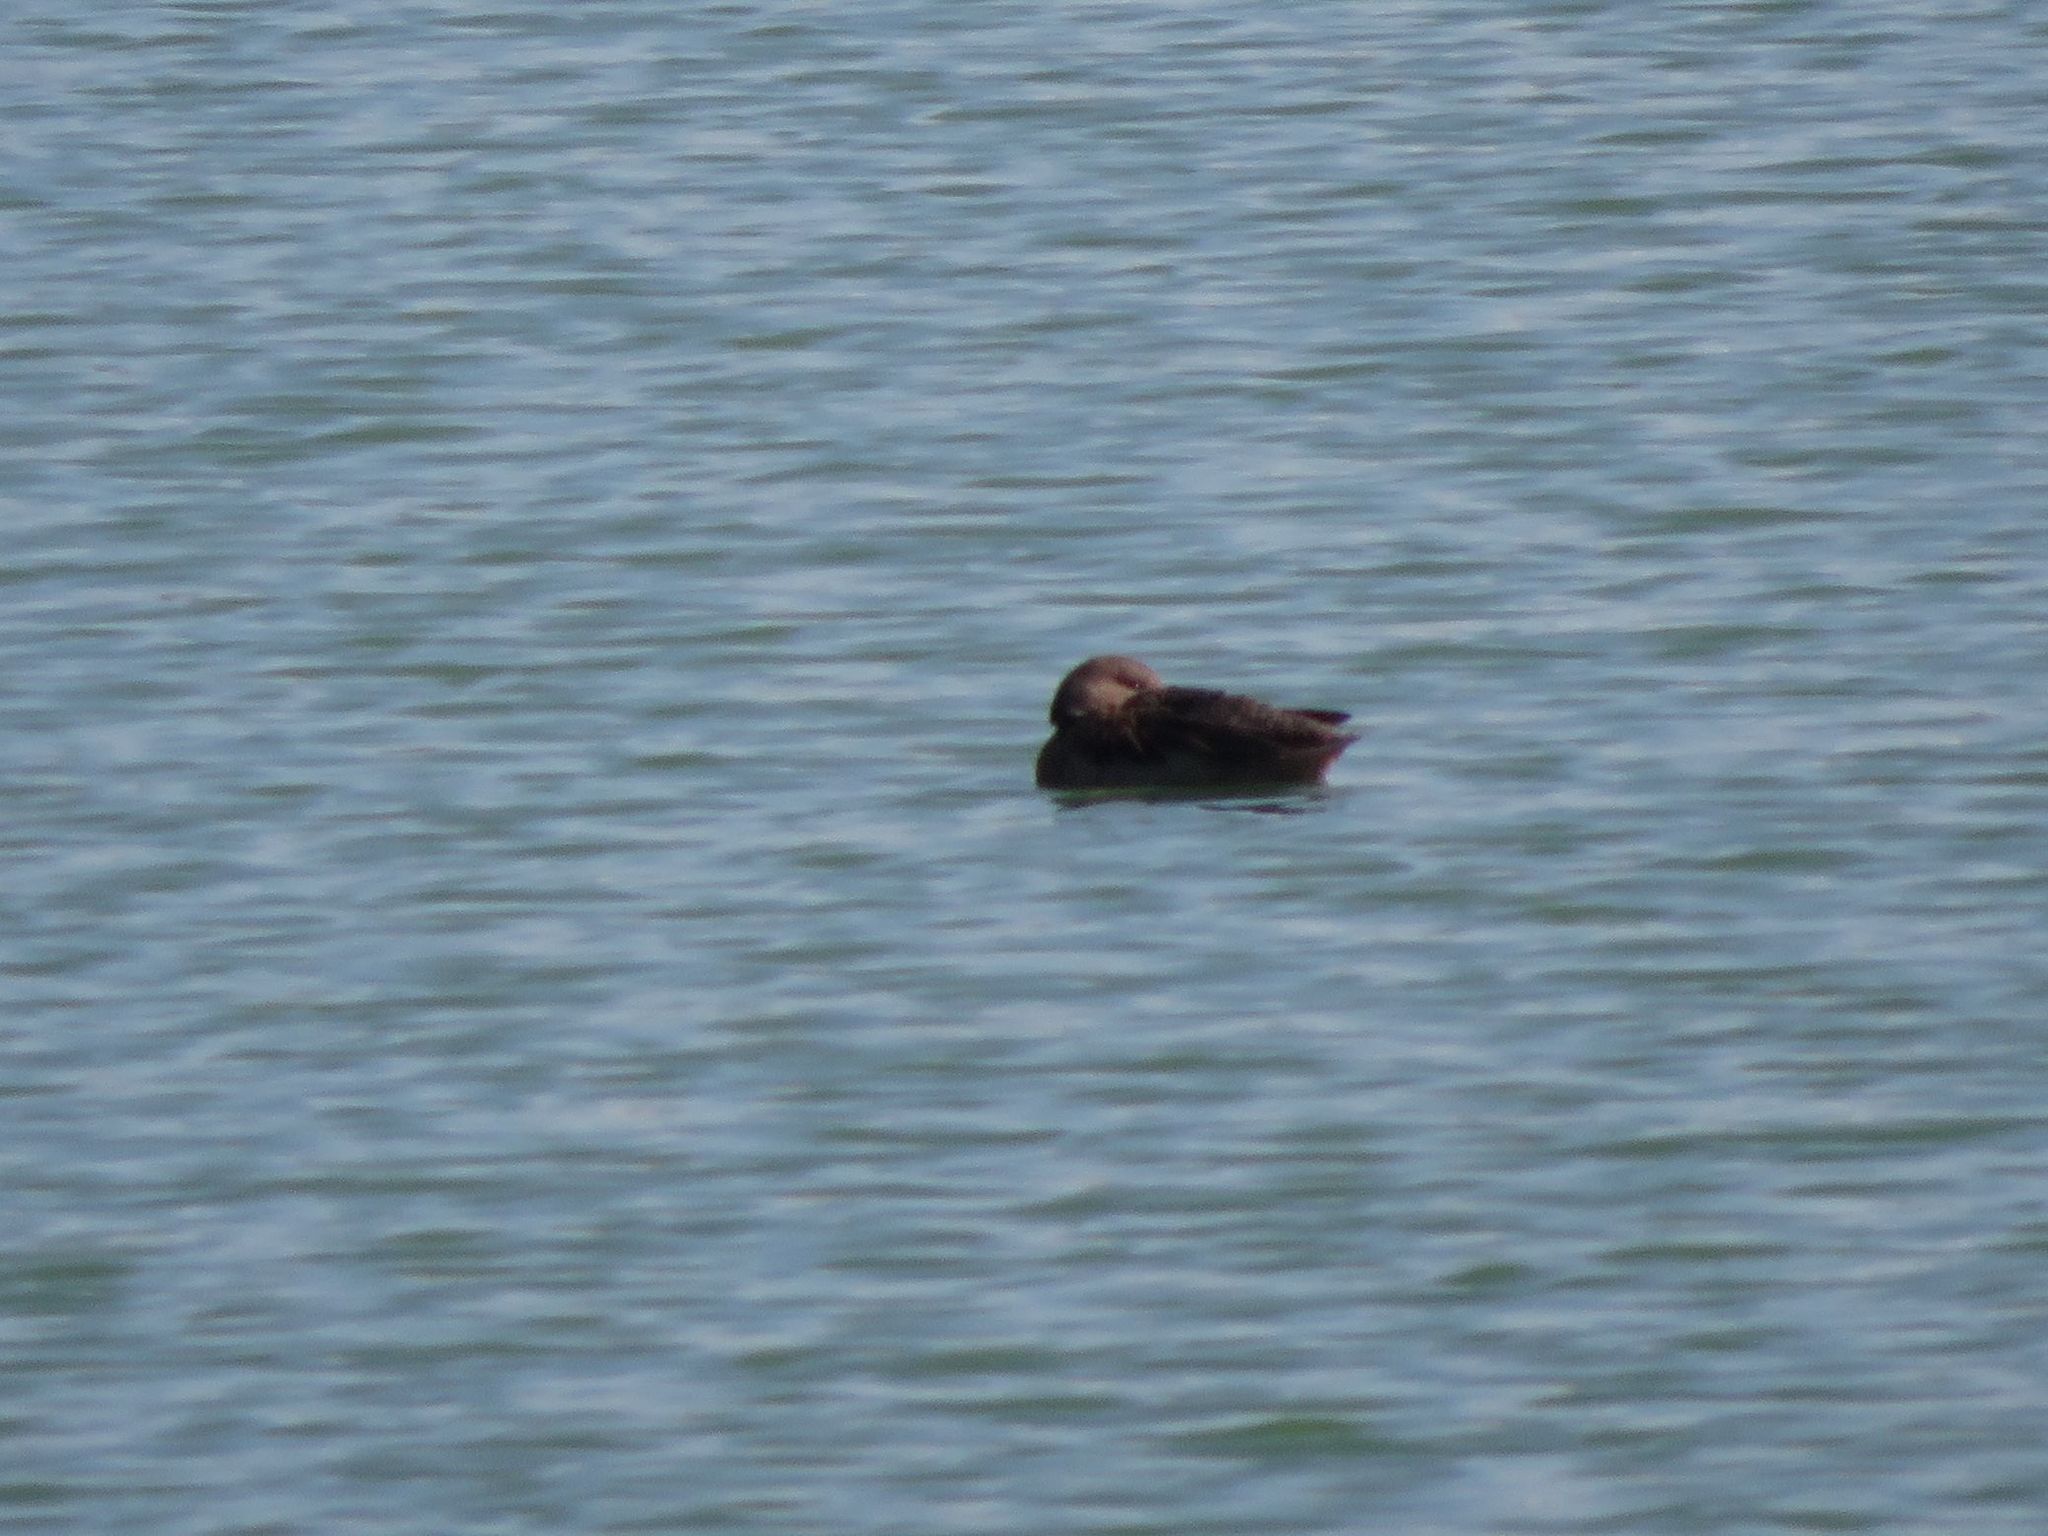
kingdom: Animalia
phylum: Chordata
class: Aves
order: Anseriformes
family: Anatidae
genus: Anas
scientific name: Anas flavirostris
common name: Yellow-billed teal
